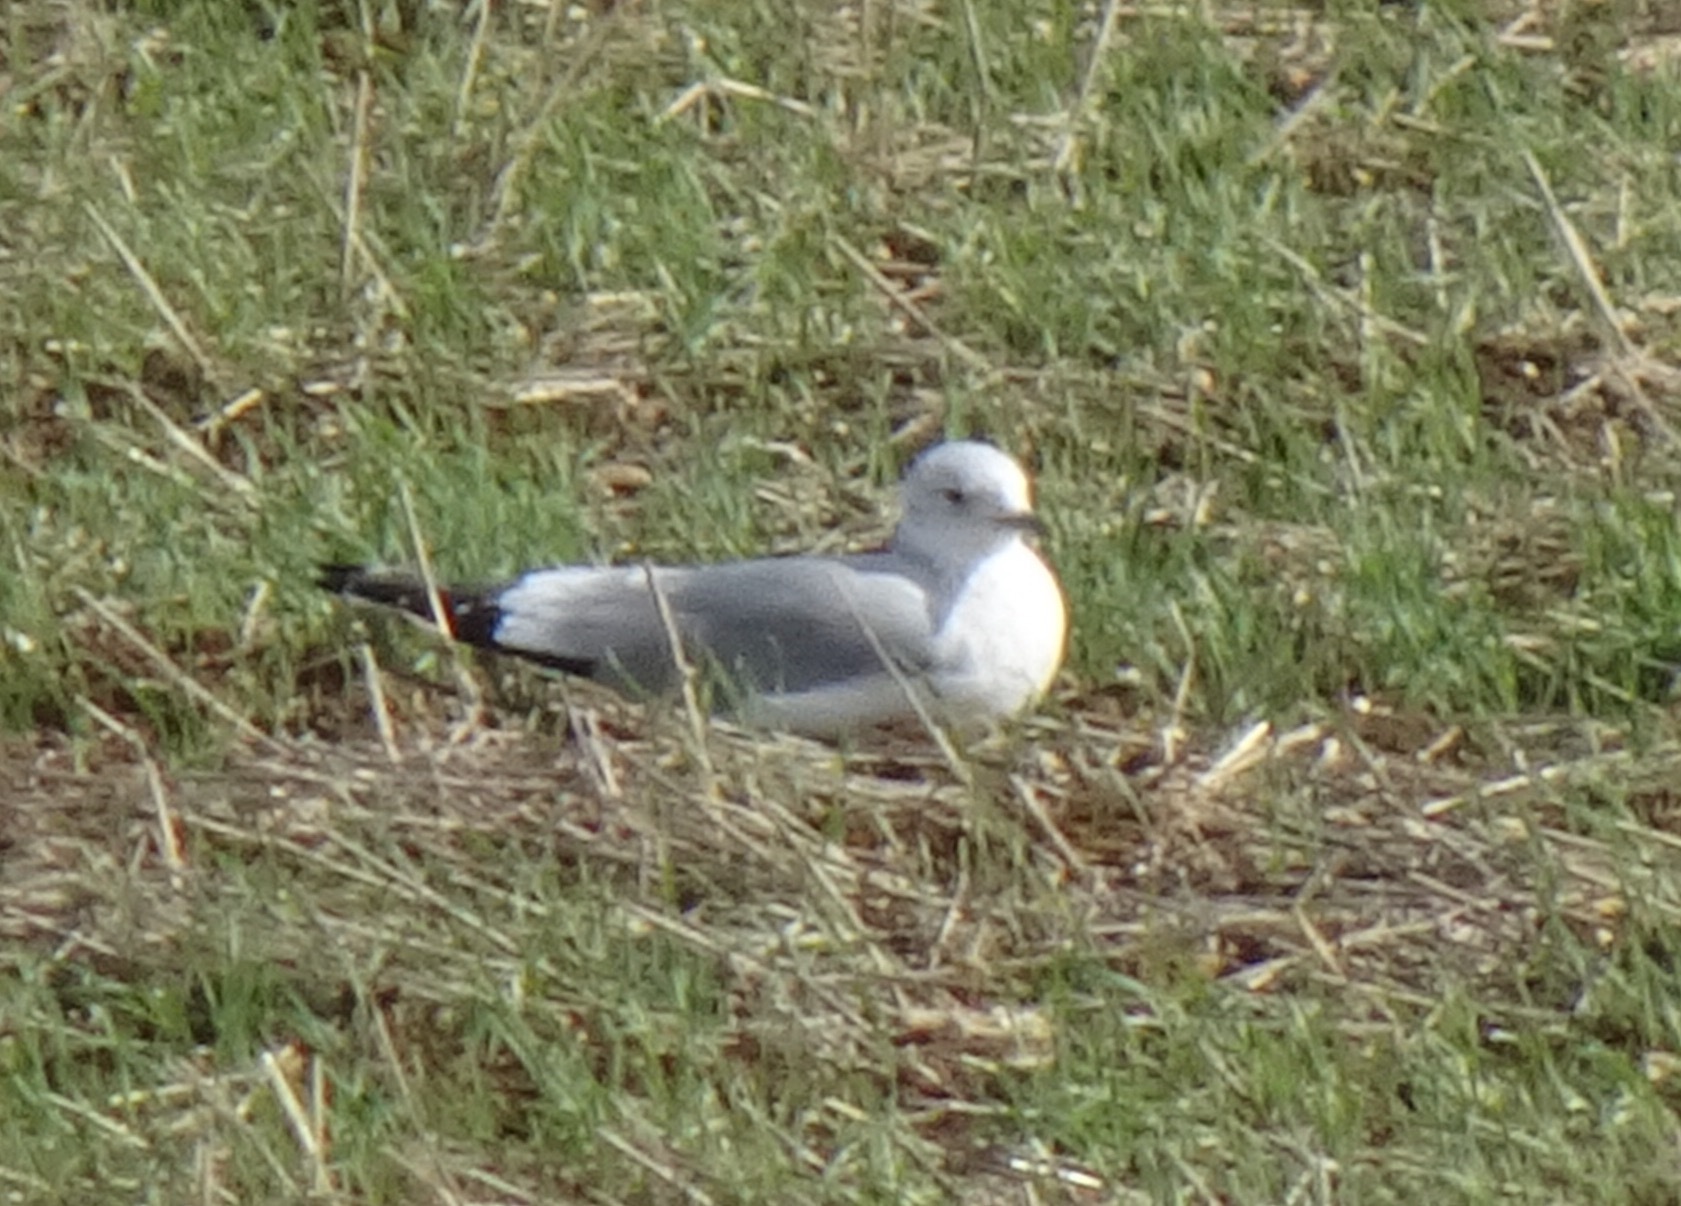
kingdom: Animalia
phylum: Chordata
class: Aves
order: Charadriiformes
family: Laridae
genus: Larus
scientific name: Larus canus
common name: Mew gull
